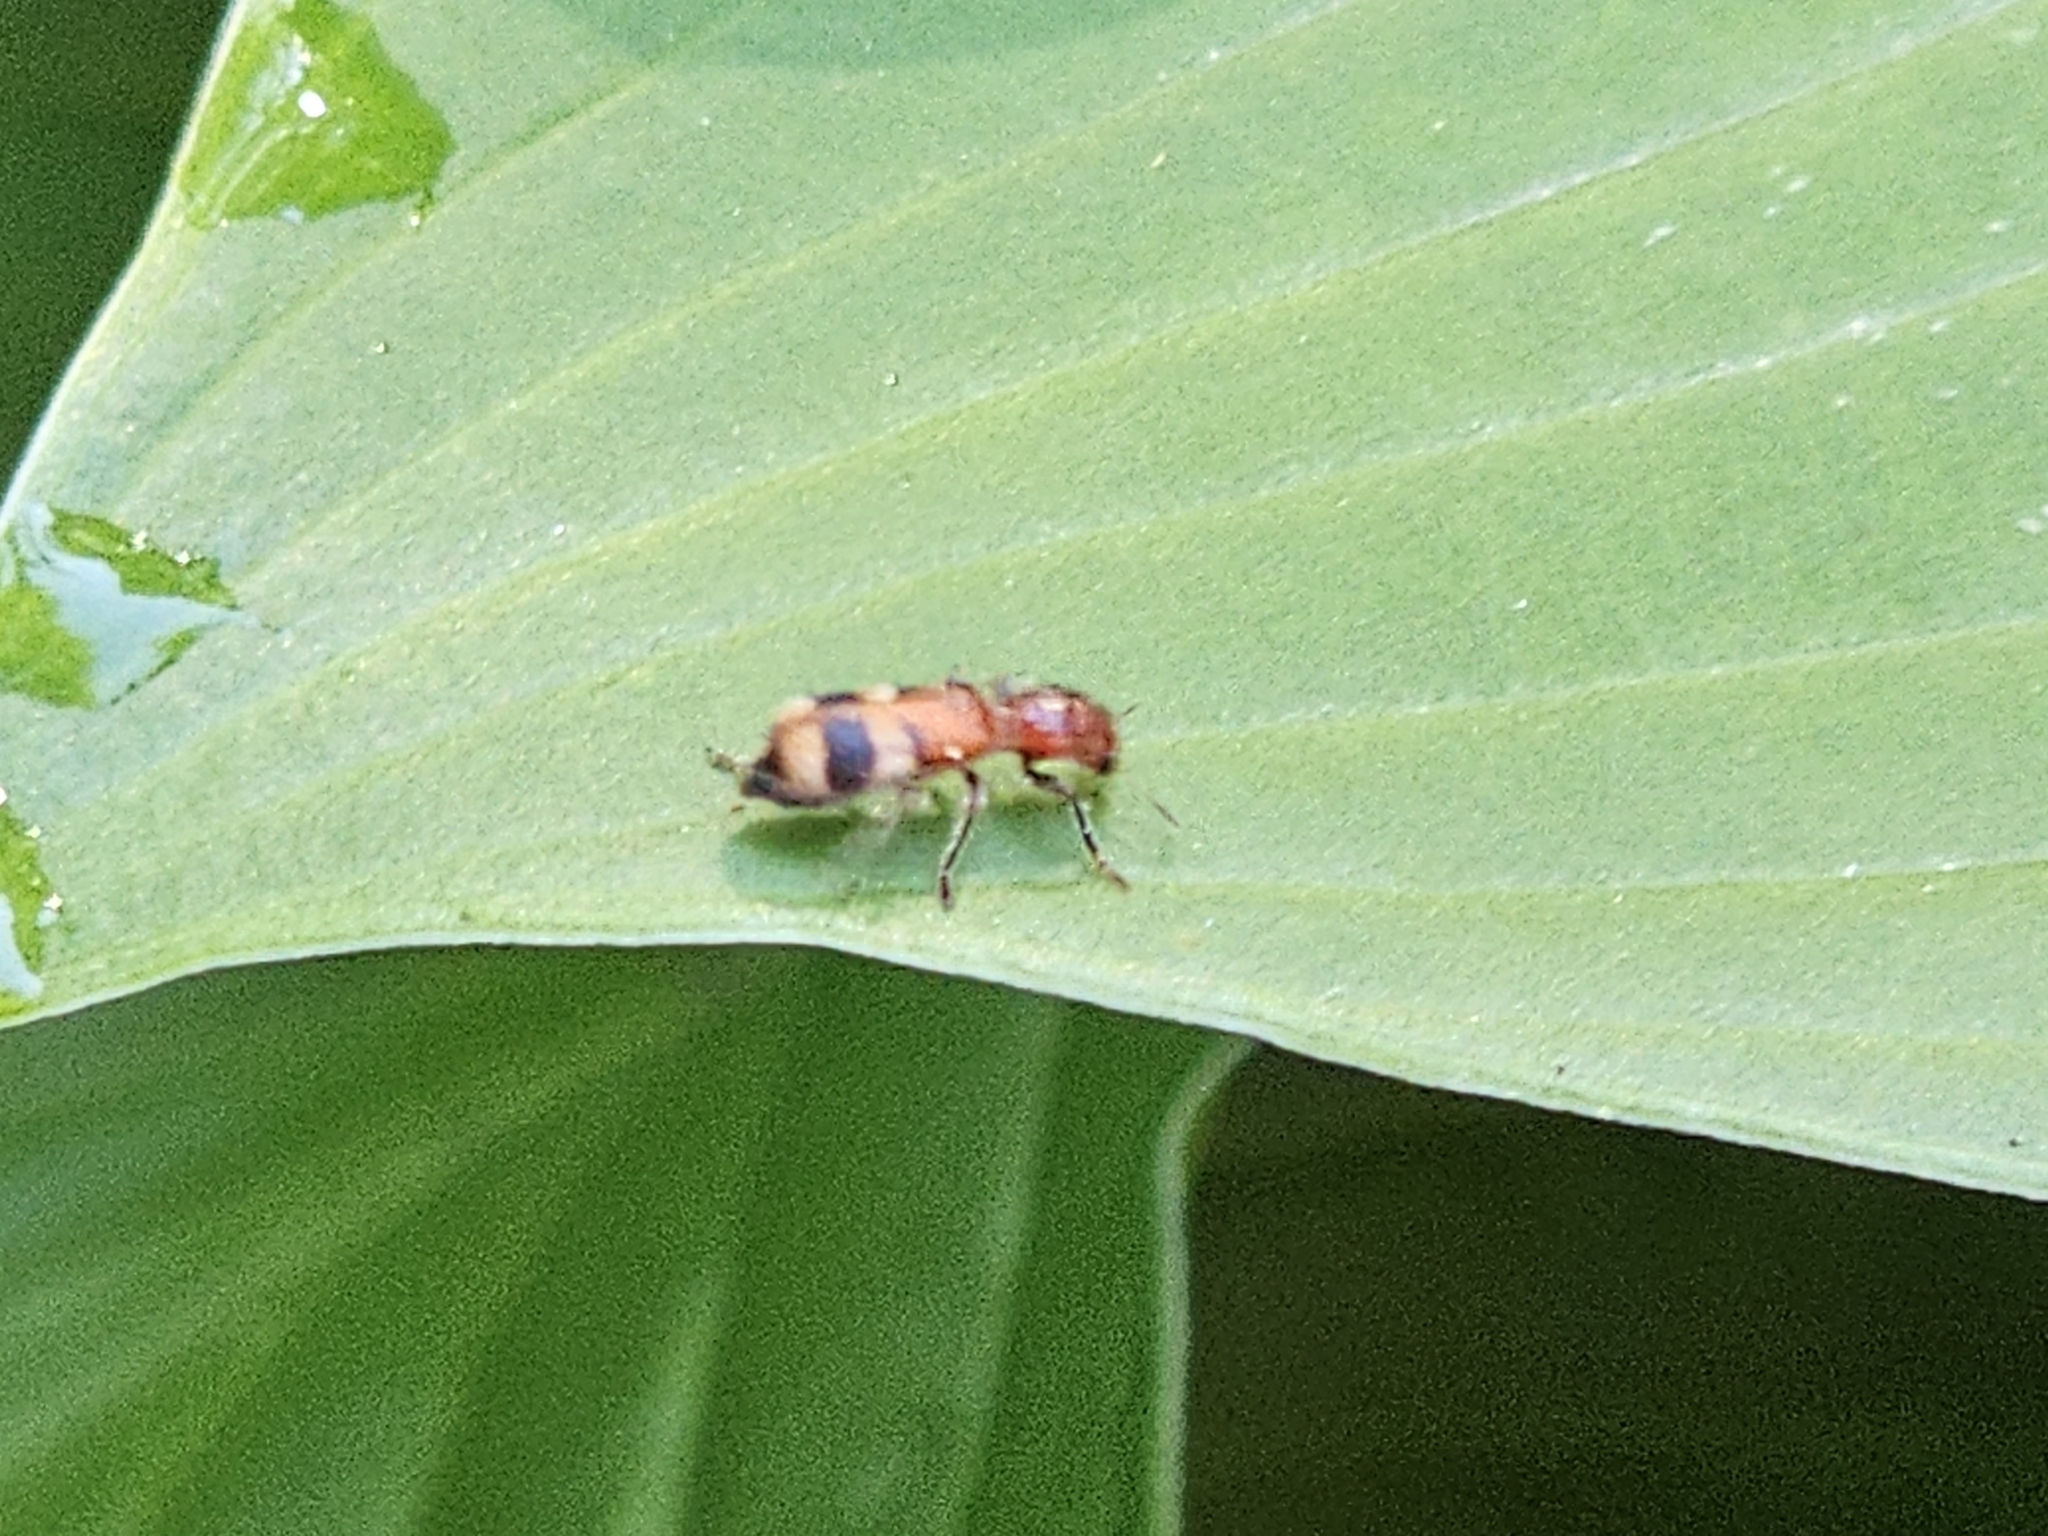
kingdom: Animalia
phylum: Arthropoda
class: Insecta
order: Coleoptera
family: Cleridae
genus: Enoclerus
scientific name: Enoclerus rosmarus
